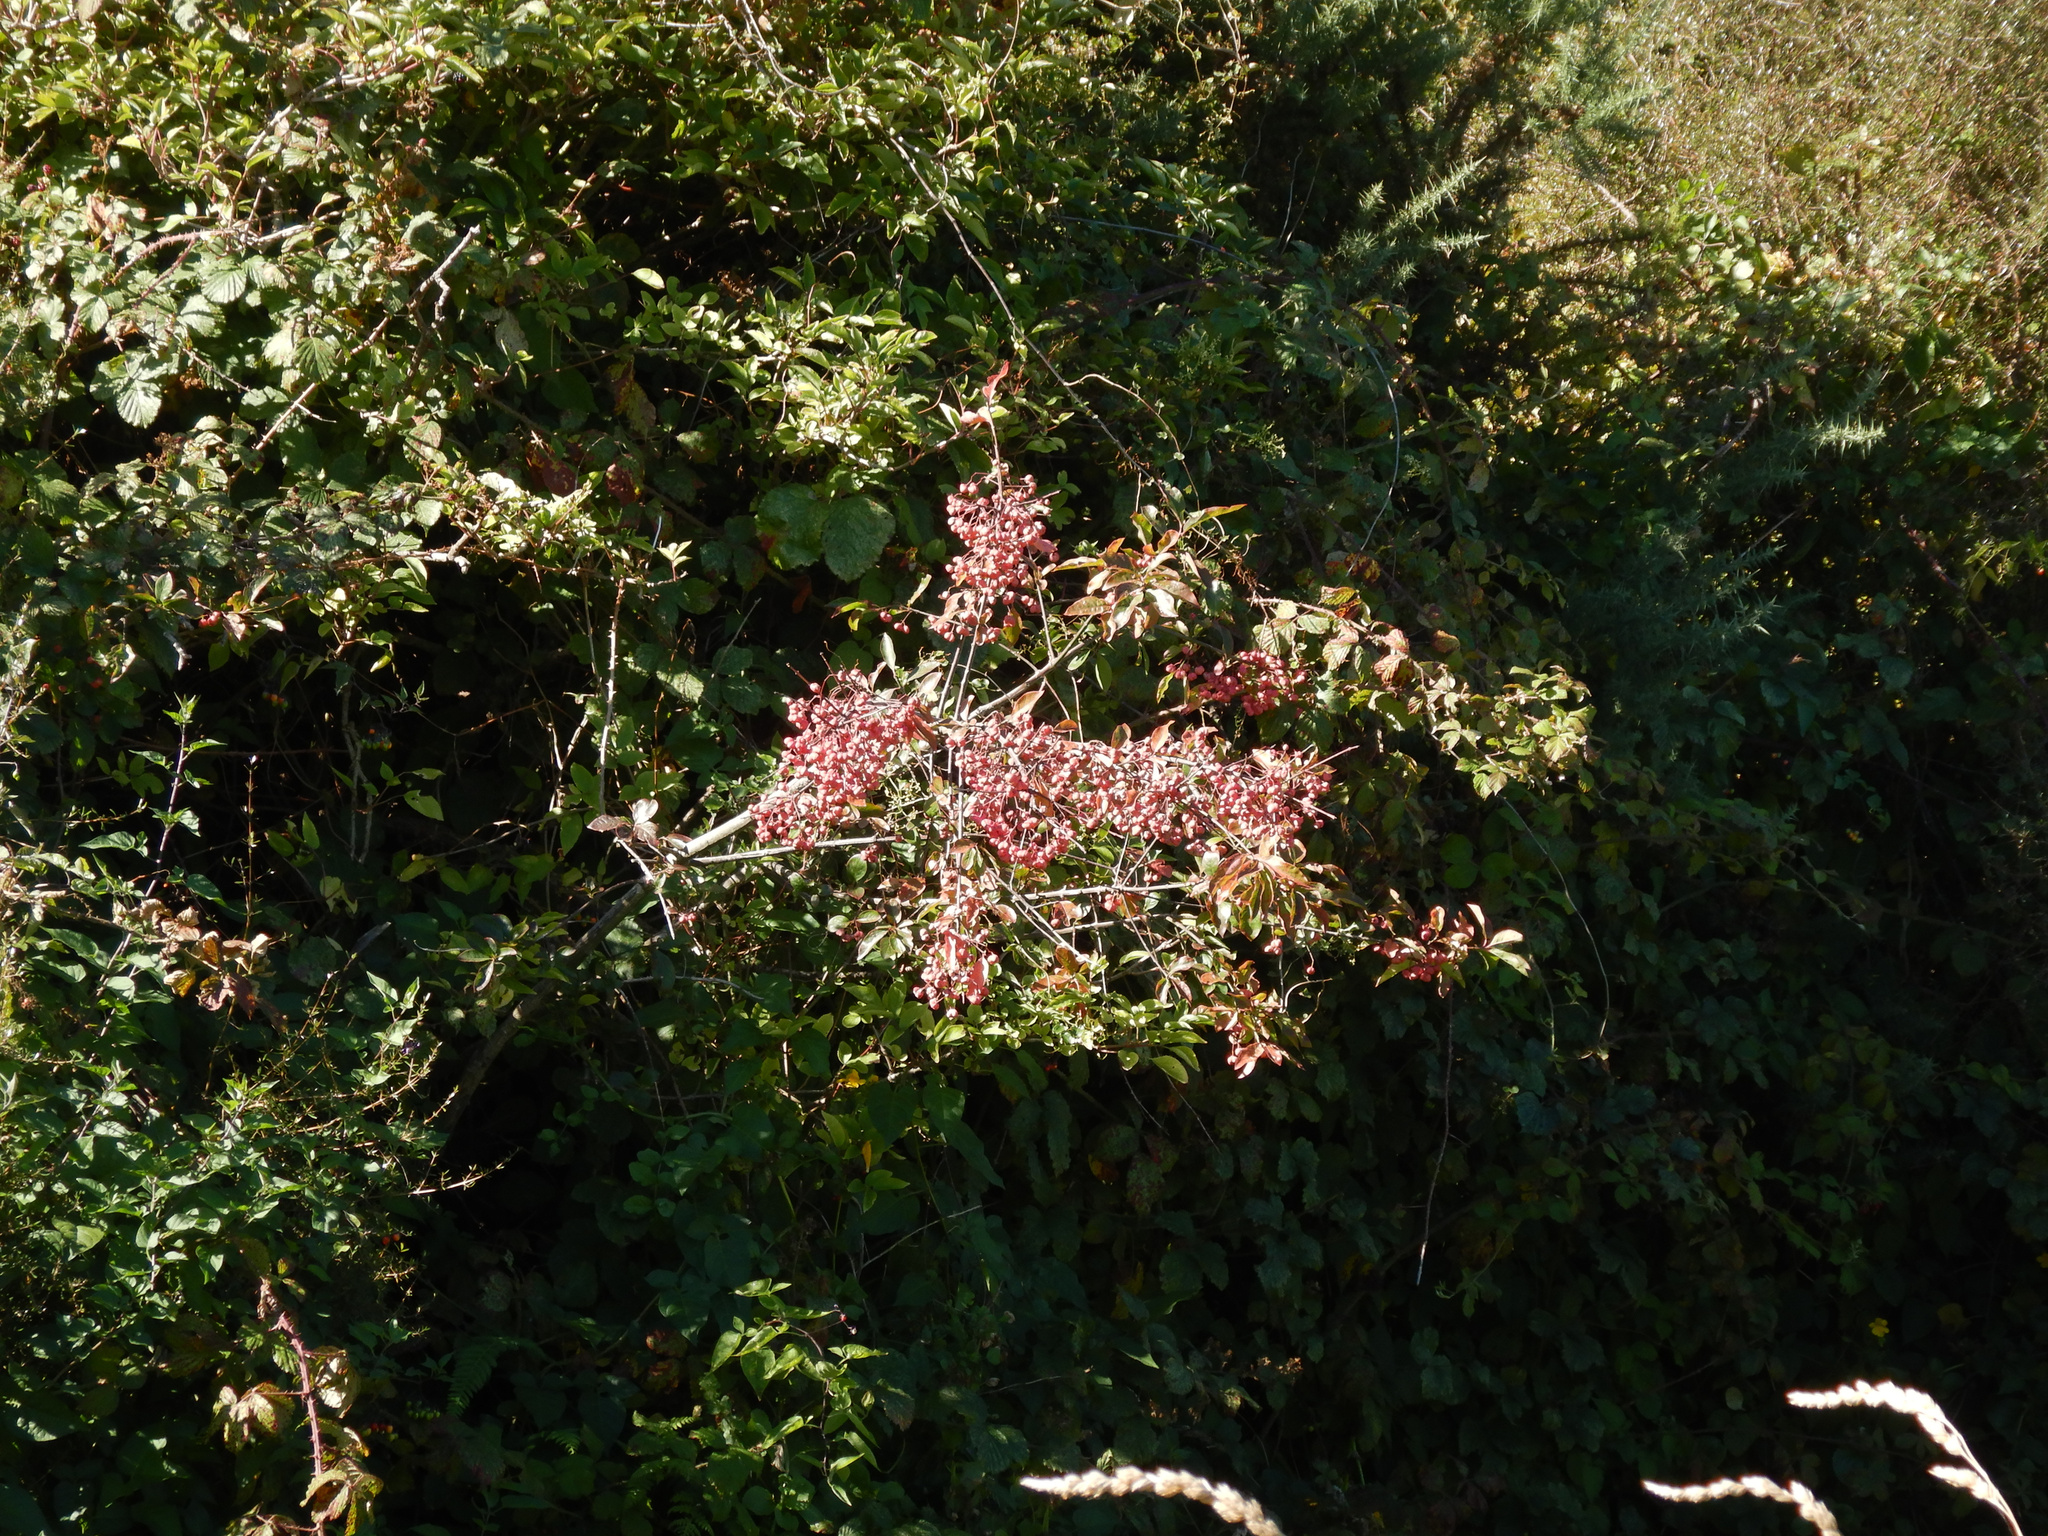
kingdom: Plantae
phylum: Tracheophyta
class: Magnoliopsida
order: Celastrales
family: Celastraceae
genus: Euonymus
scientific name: Euonymus europaeus
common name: Spindle
